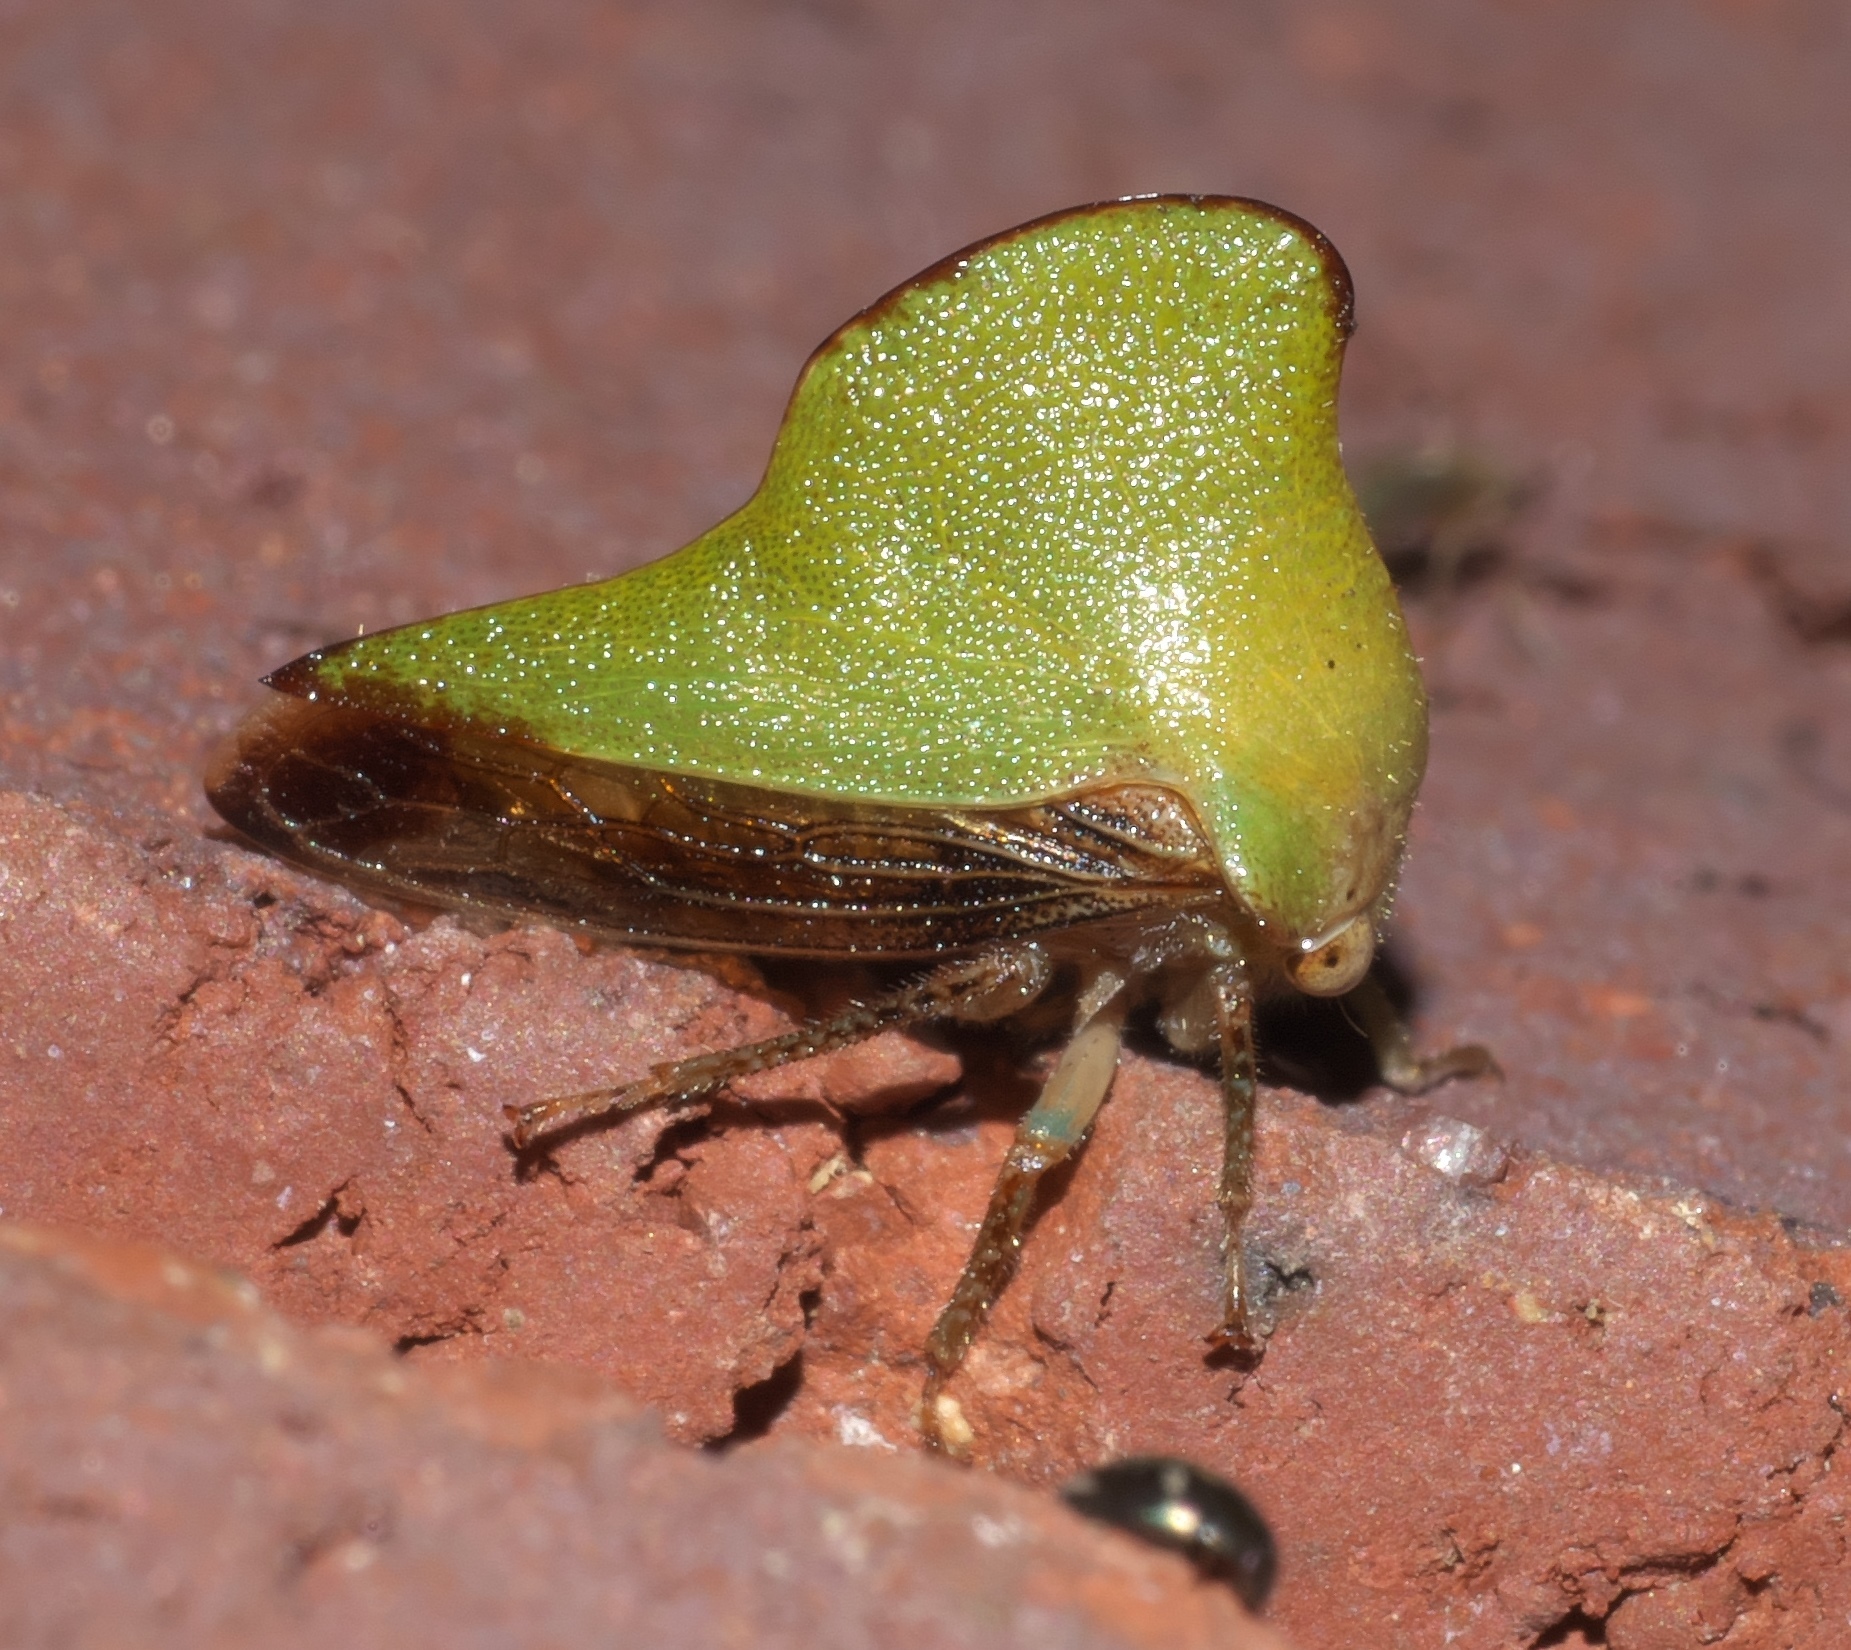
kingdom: Animalia
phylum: Arthropoda
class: Insecta
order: Hemiptera
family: Membracidae
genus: Helonica
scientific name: Helonica excelsa
